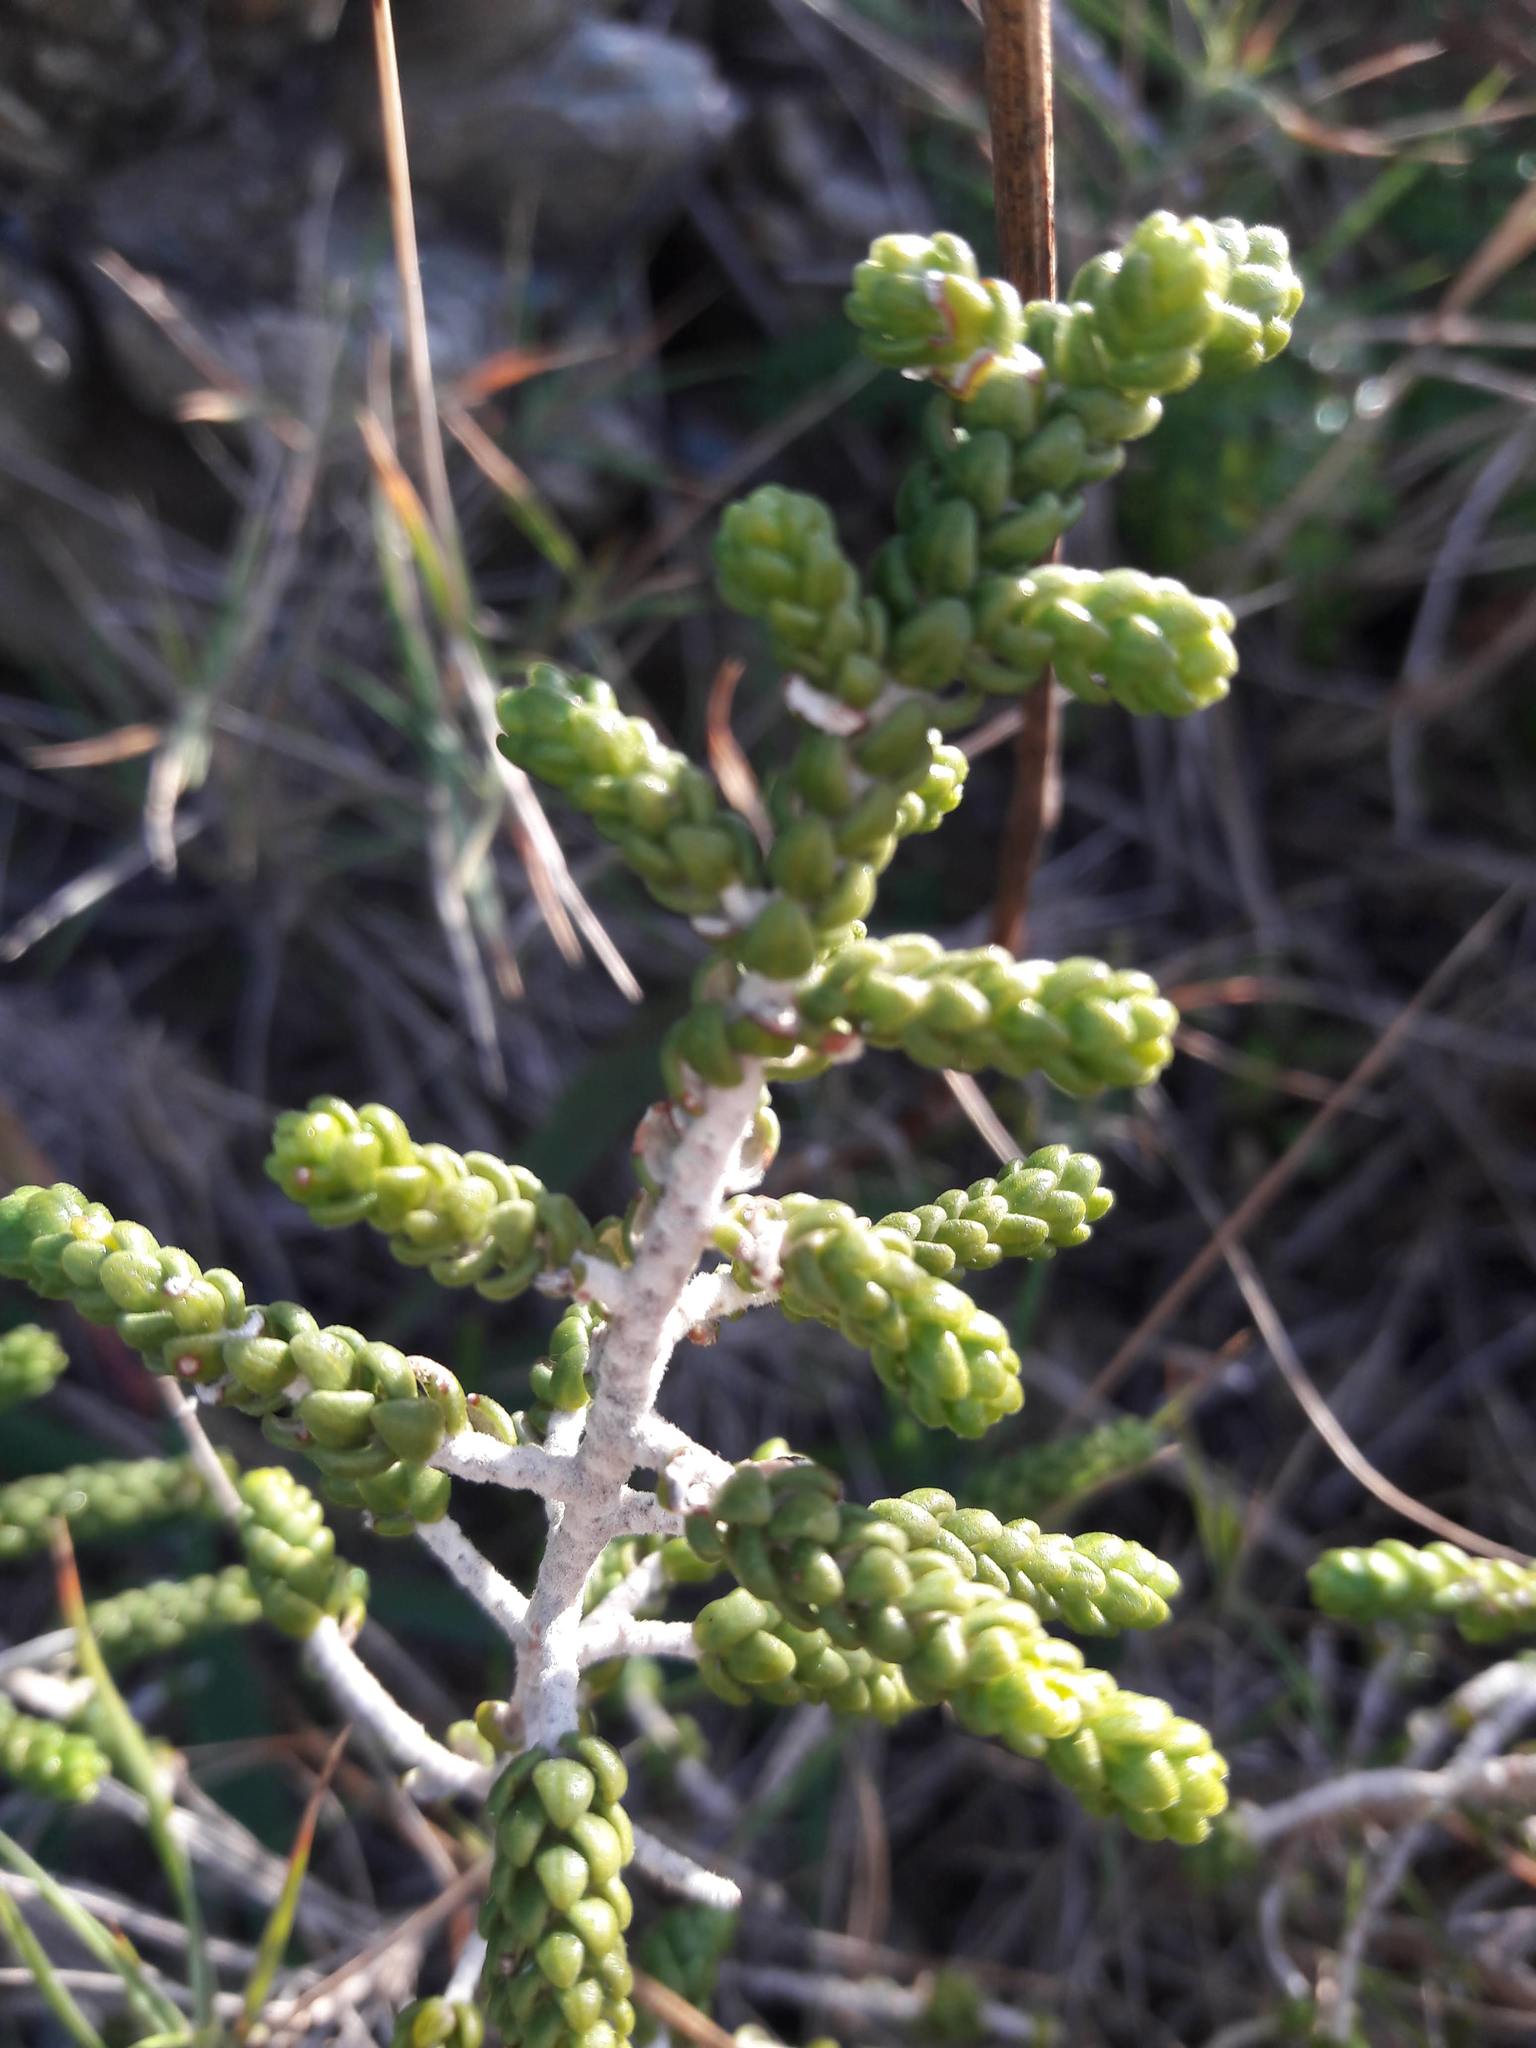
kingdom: Plantae
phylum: Tracheophyta
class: Magnoliopsida
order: Malvales
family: Thymelaeaceae
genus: Thymelaea
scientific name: Thymelaea hirsuta
